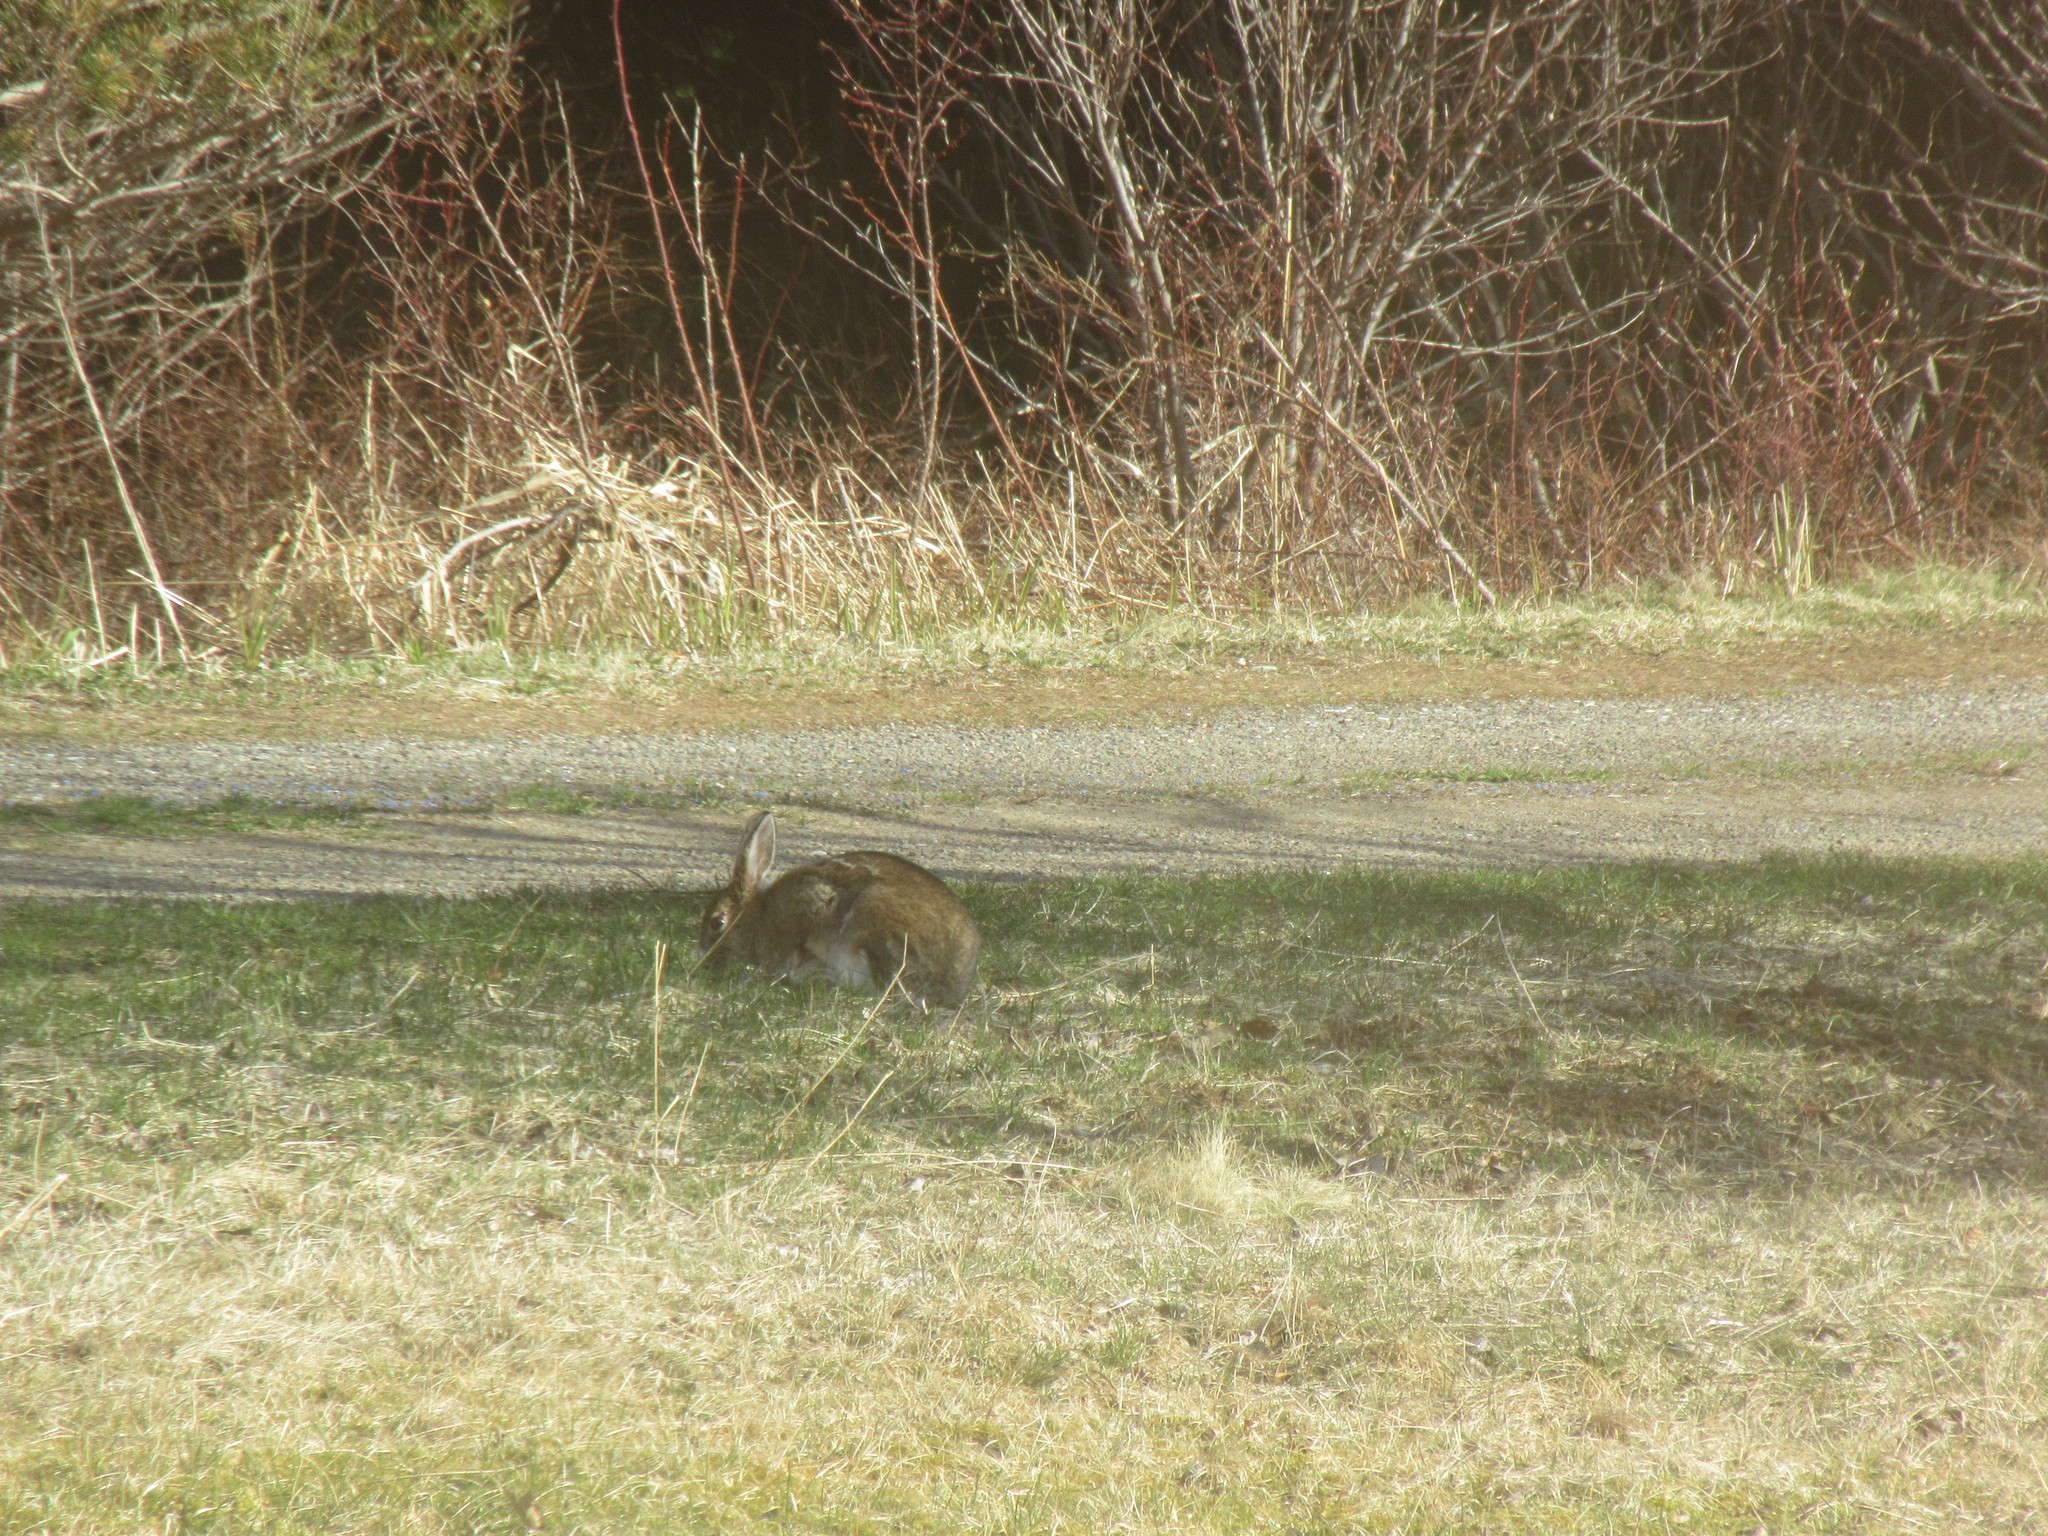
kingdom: Animalia
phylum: Chordata
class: Mammalia
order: Lagomorpha
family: Leporidae
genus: Lepus
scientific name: Lepus americanus
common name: Snowshoe hare
